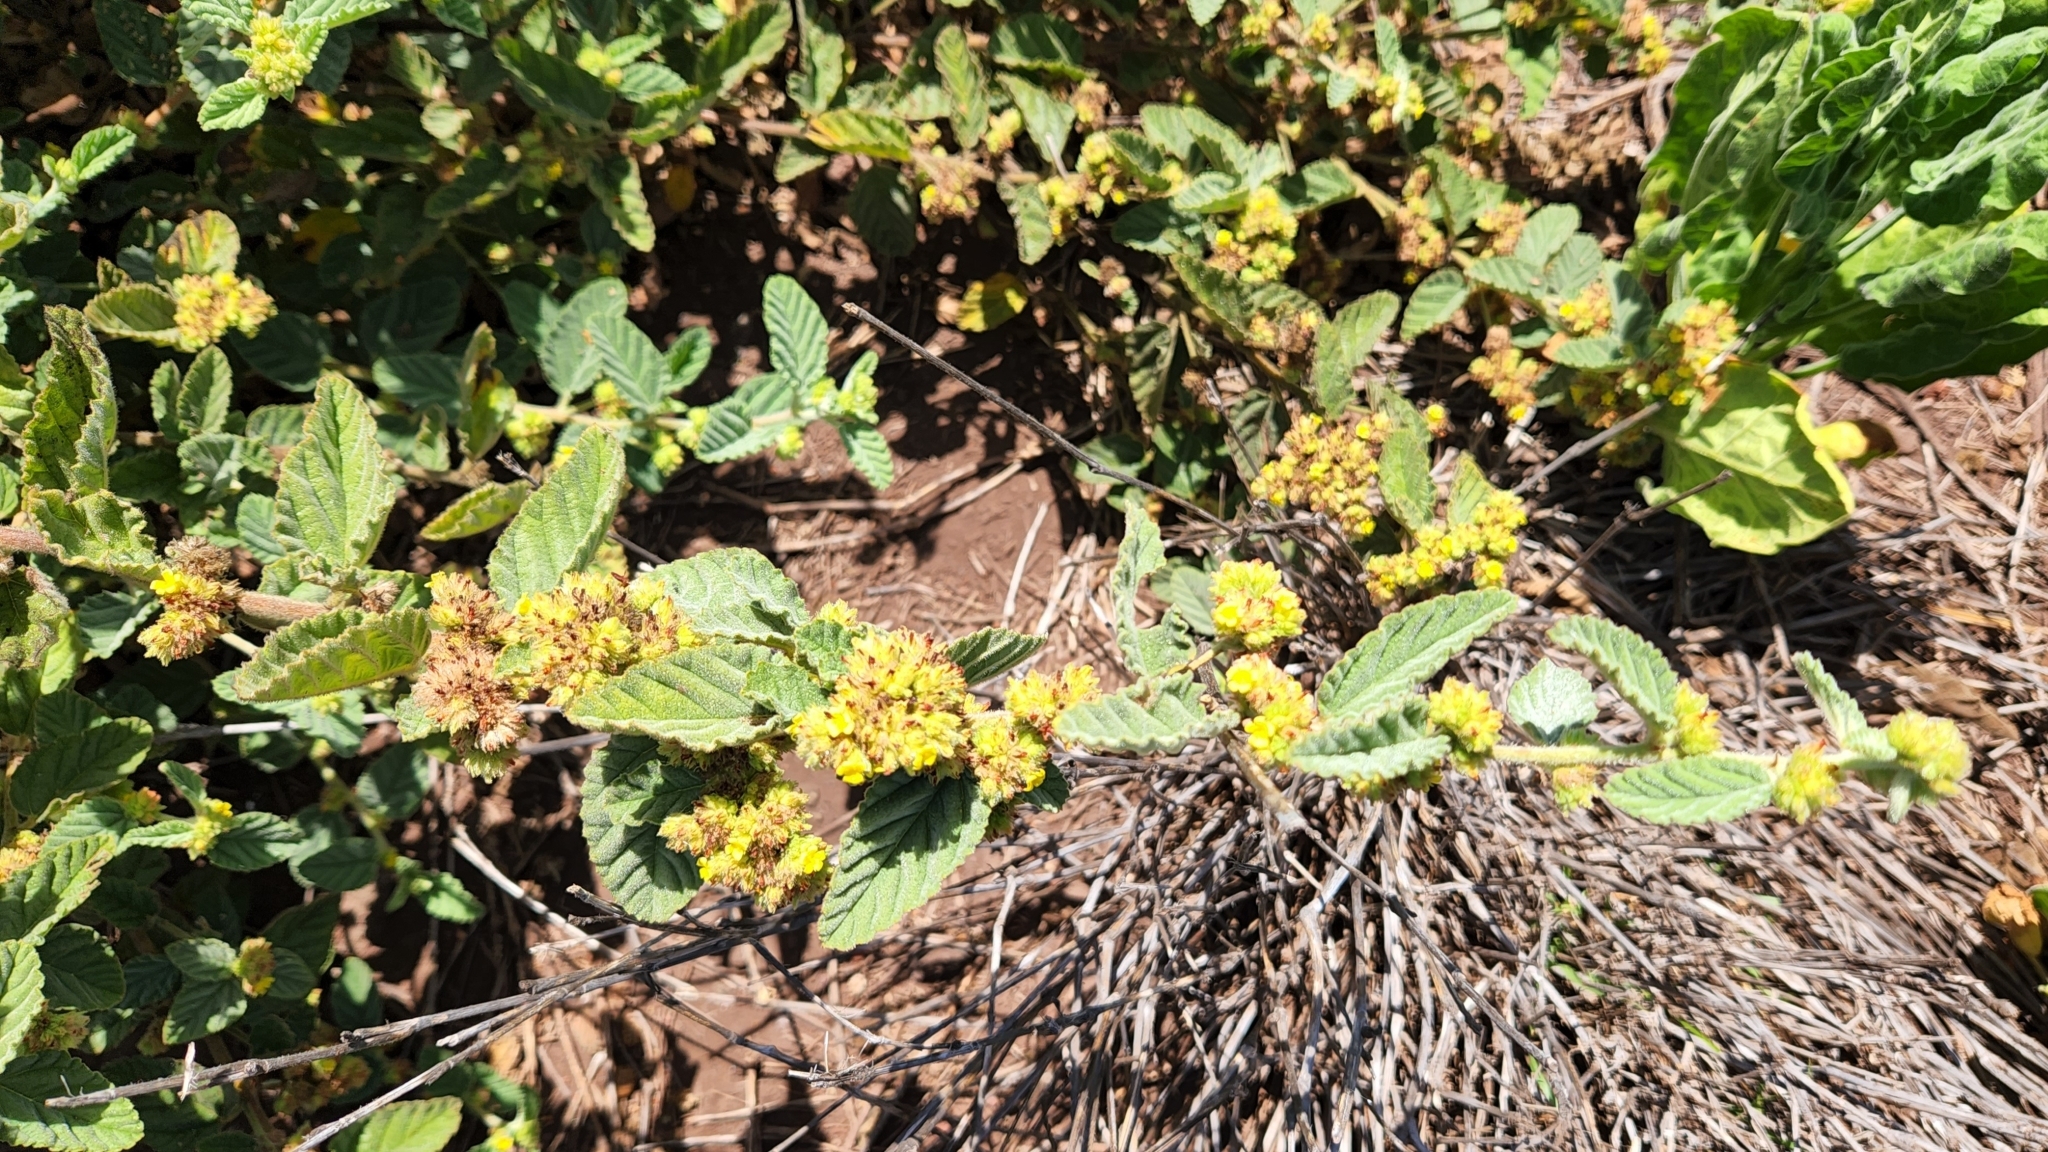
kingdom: Plantae
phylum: Tracheophyta
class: Magnoliopsida
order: Malvales
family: Malvaceae
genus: Waltheria
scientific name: Waltheria indica
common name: Leather-coat
